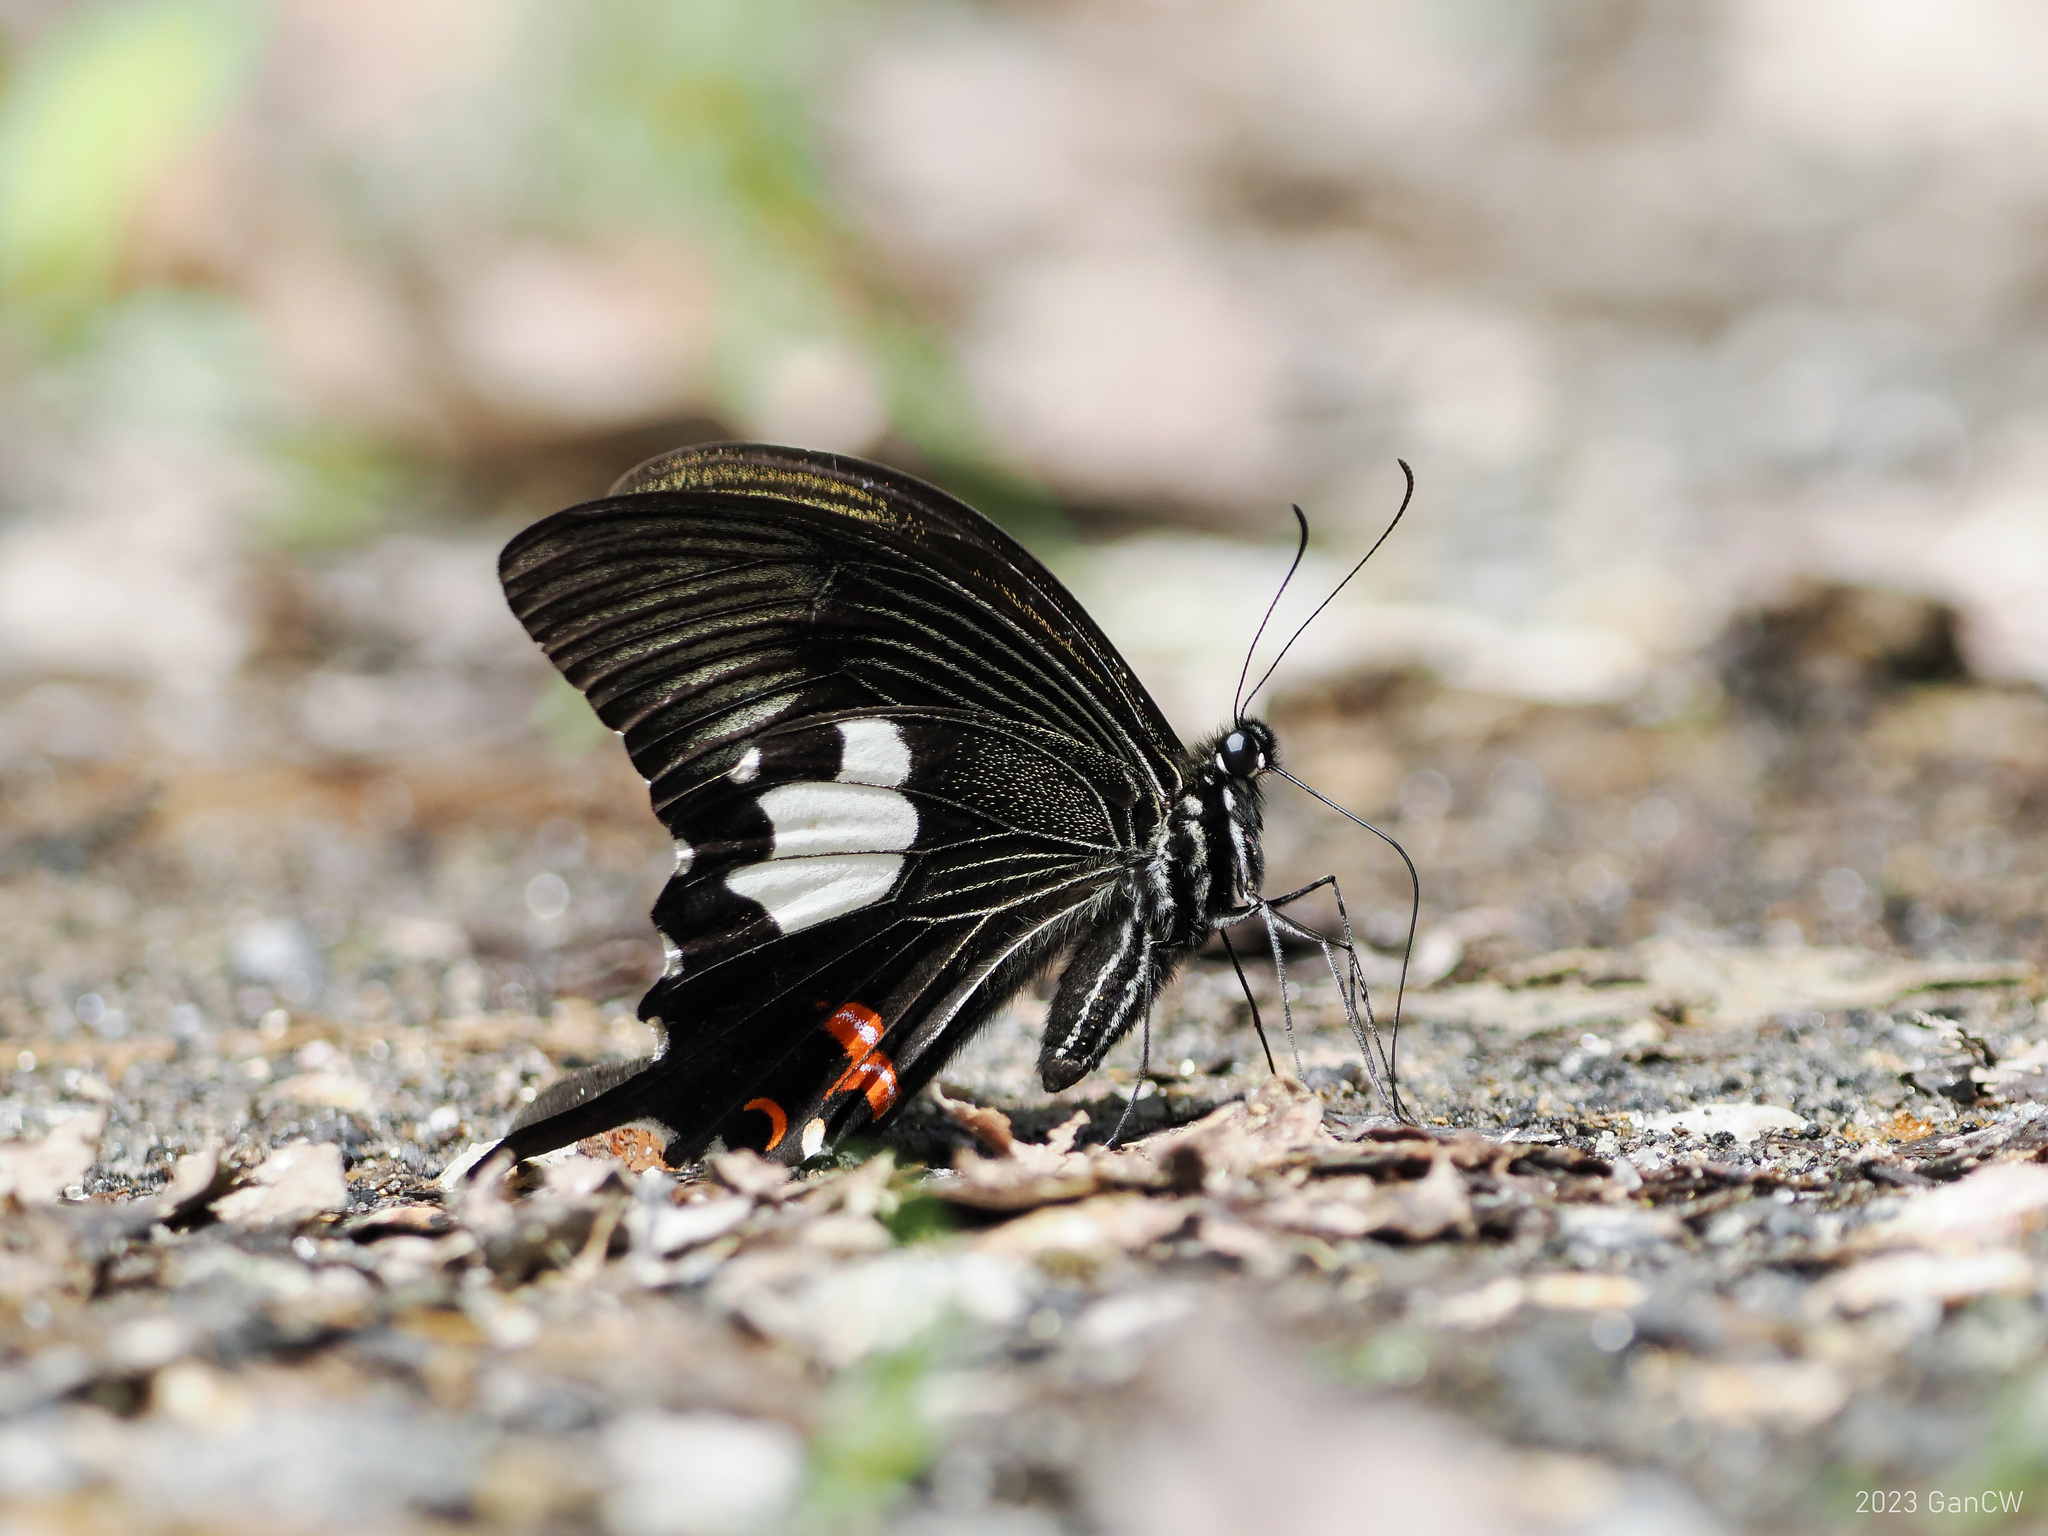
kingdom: Animalia
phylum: Arthropoda
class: Insecta
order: Lepidoptera
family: Papilionidae
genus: Papilio
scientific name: Papilio iswaroides
